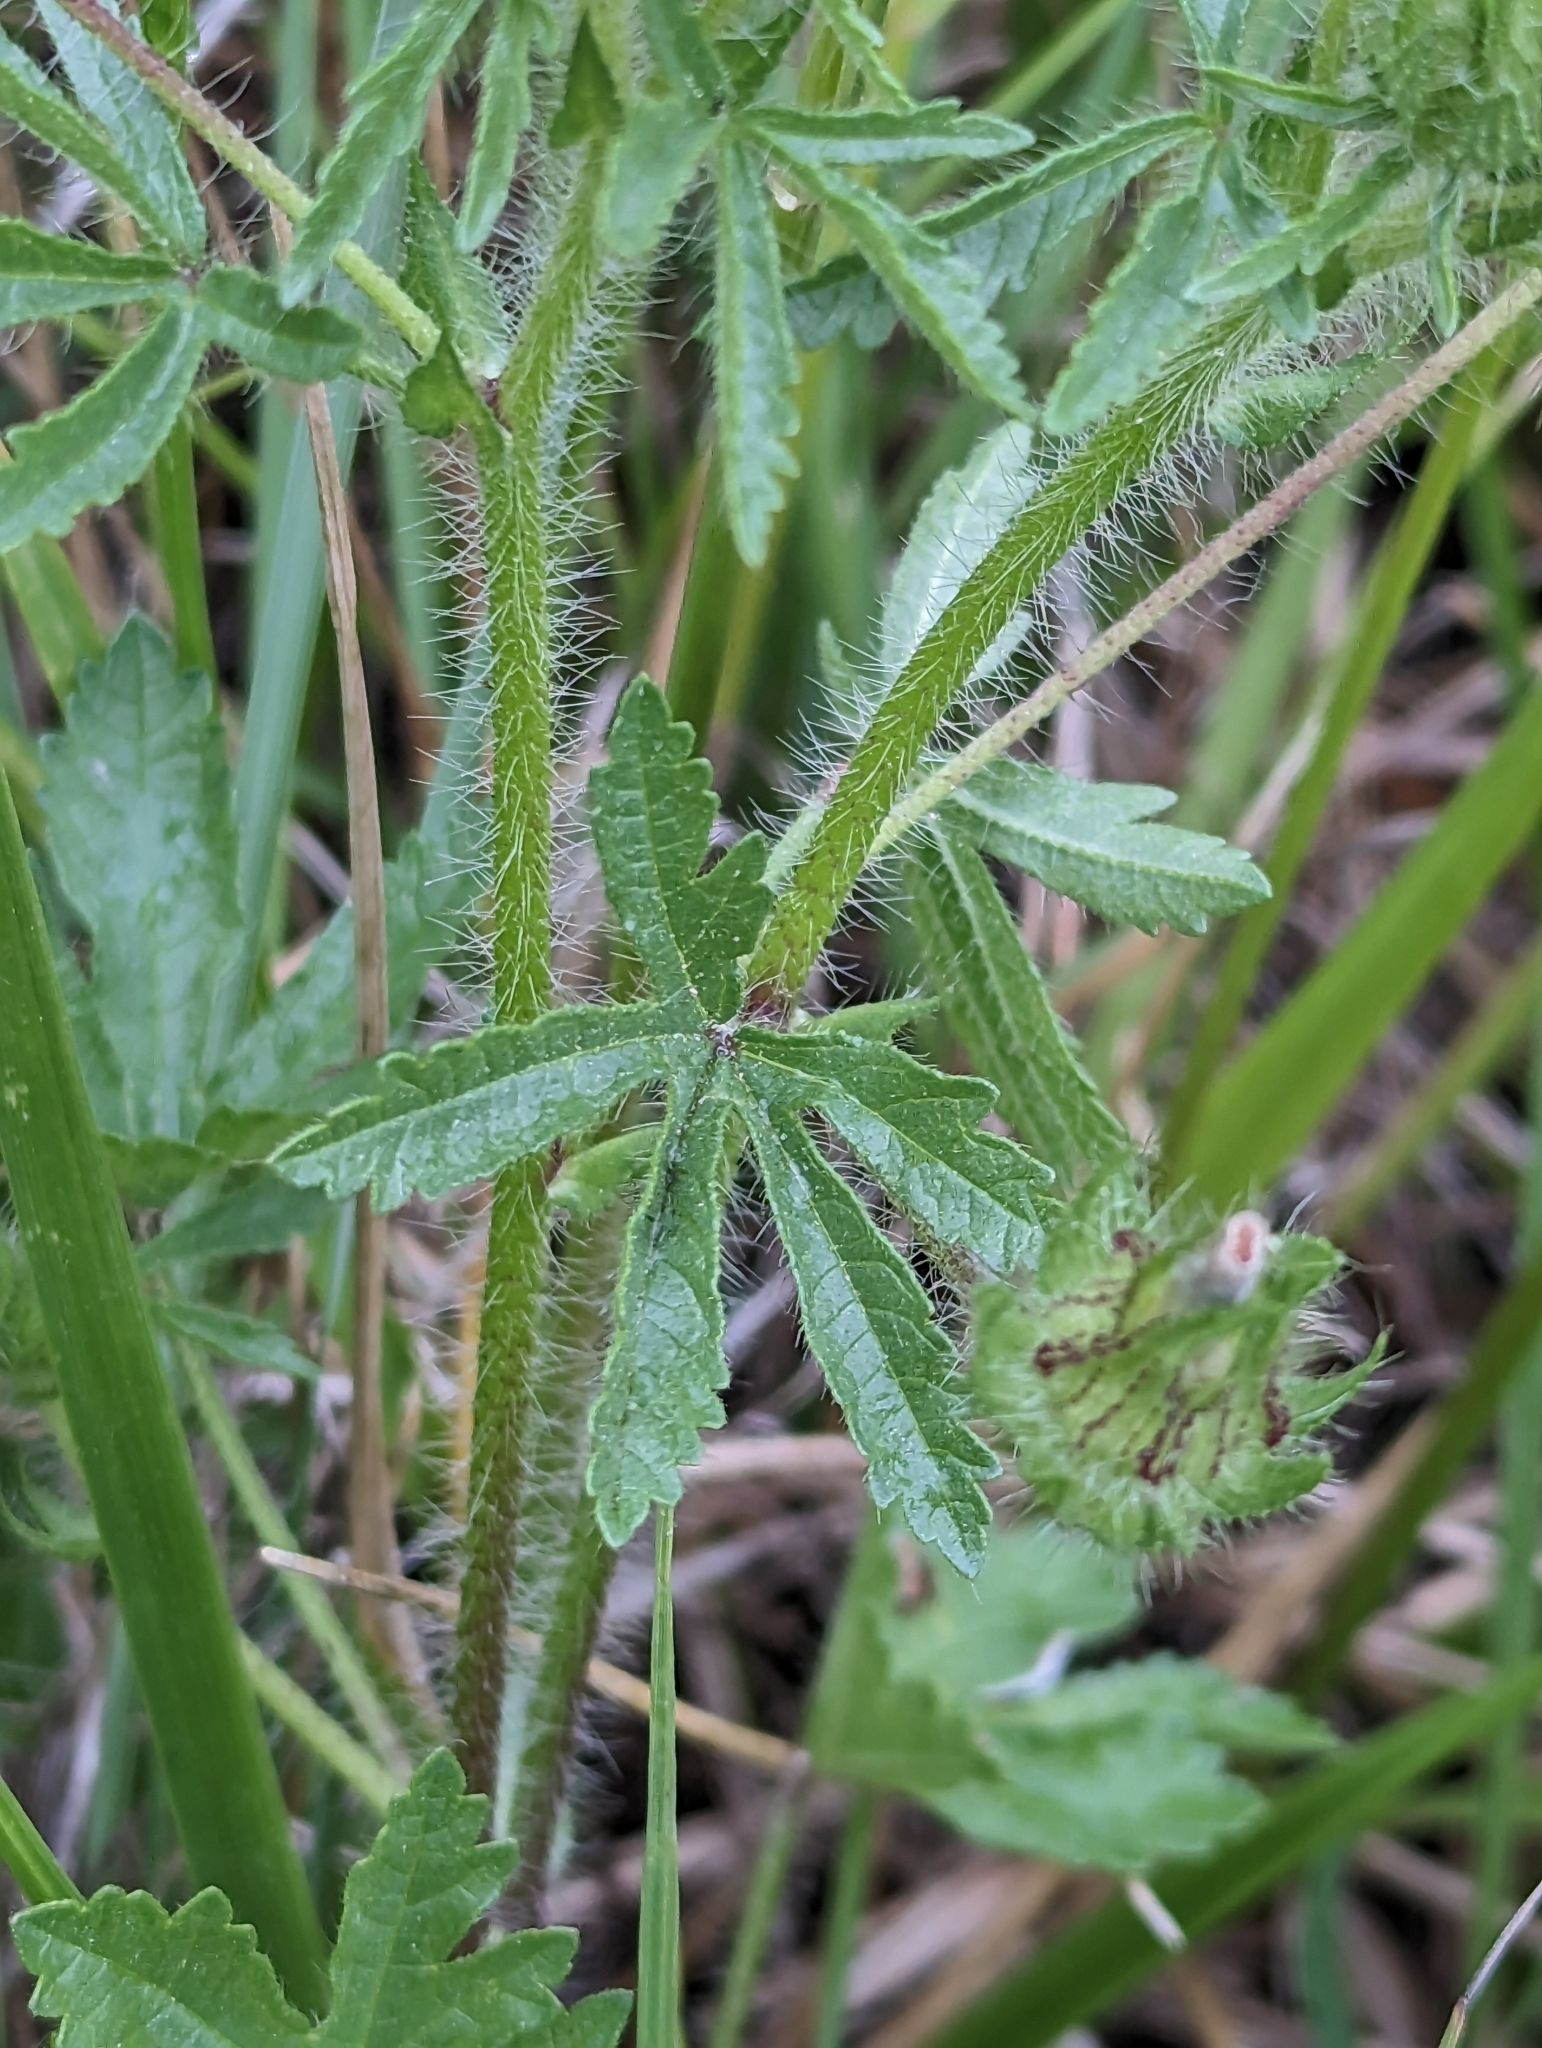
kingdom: Plantae
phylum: Tracheophyta
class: Magnoliopsida
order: Malvales
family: Malvaceae
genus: Althaea
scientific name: Althaea hirsuta
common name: Rough marsh-mallow
